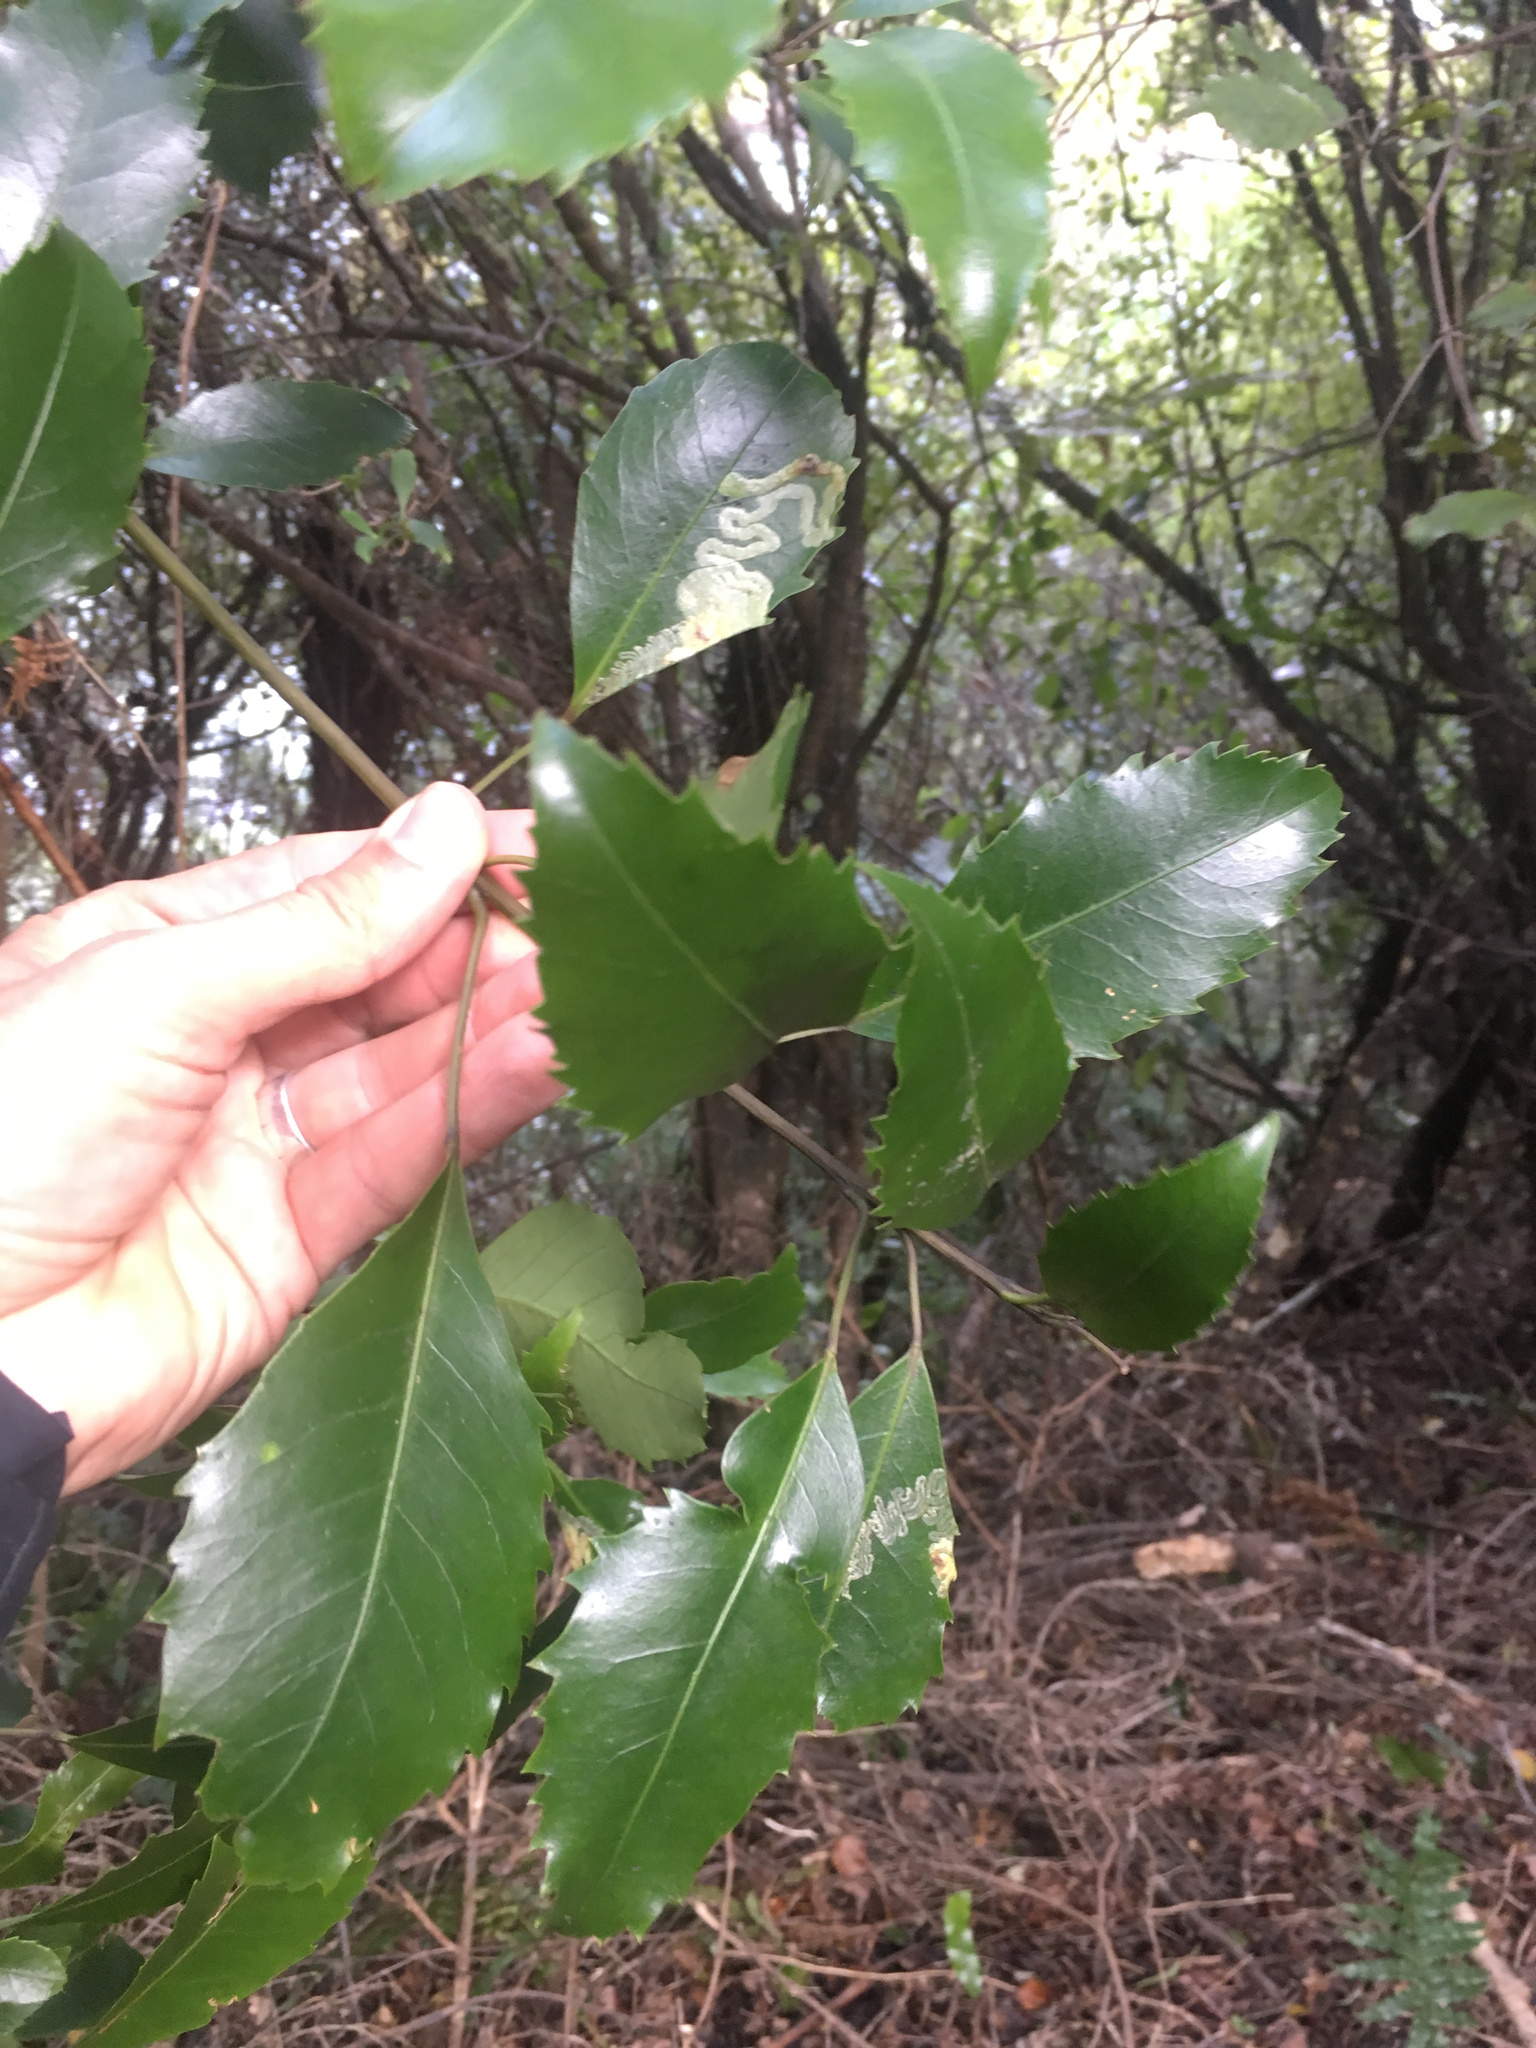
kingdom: Plantae
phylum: Tracheophyta
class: Magnoliopsida
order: Apiales
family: Araliaceae
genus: Raukaua
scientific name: Raukaua simplex
